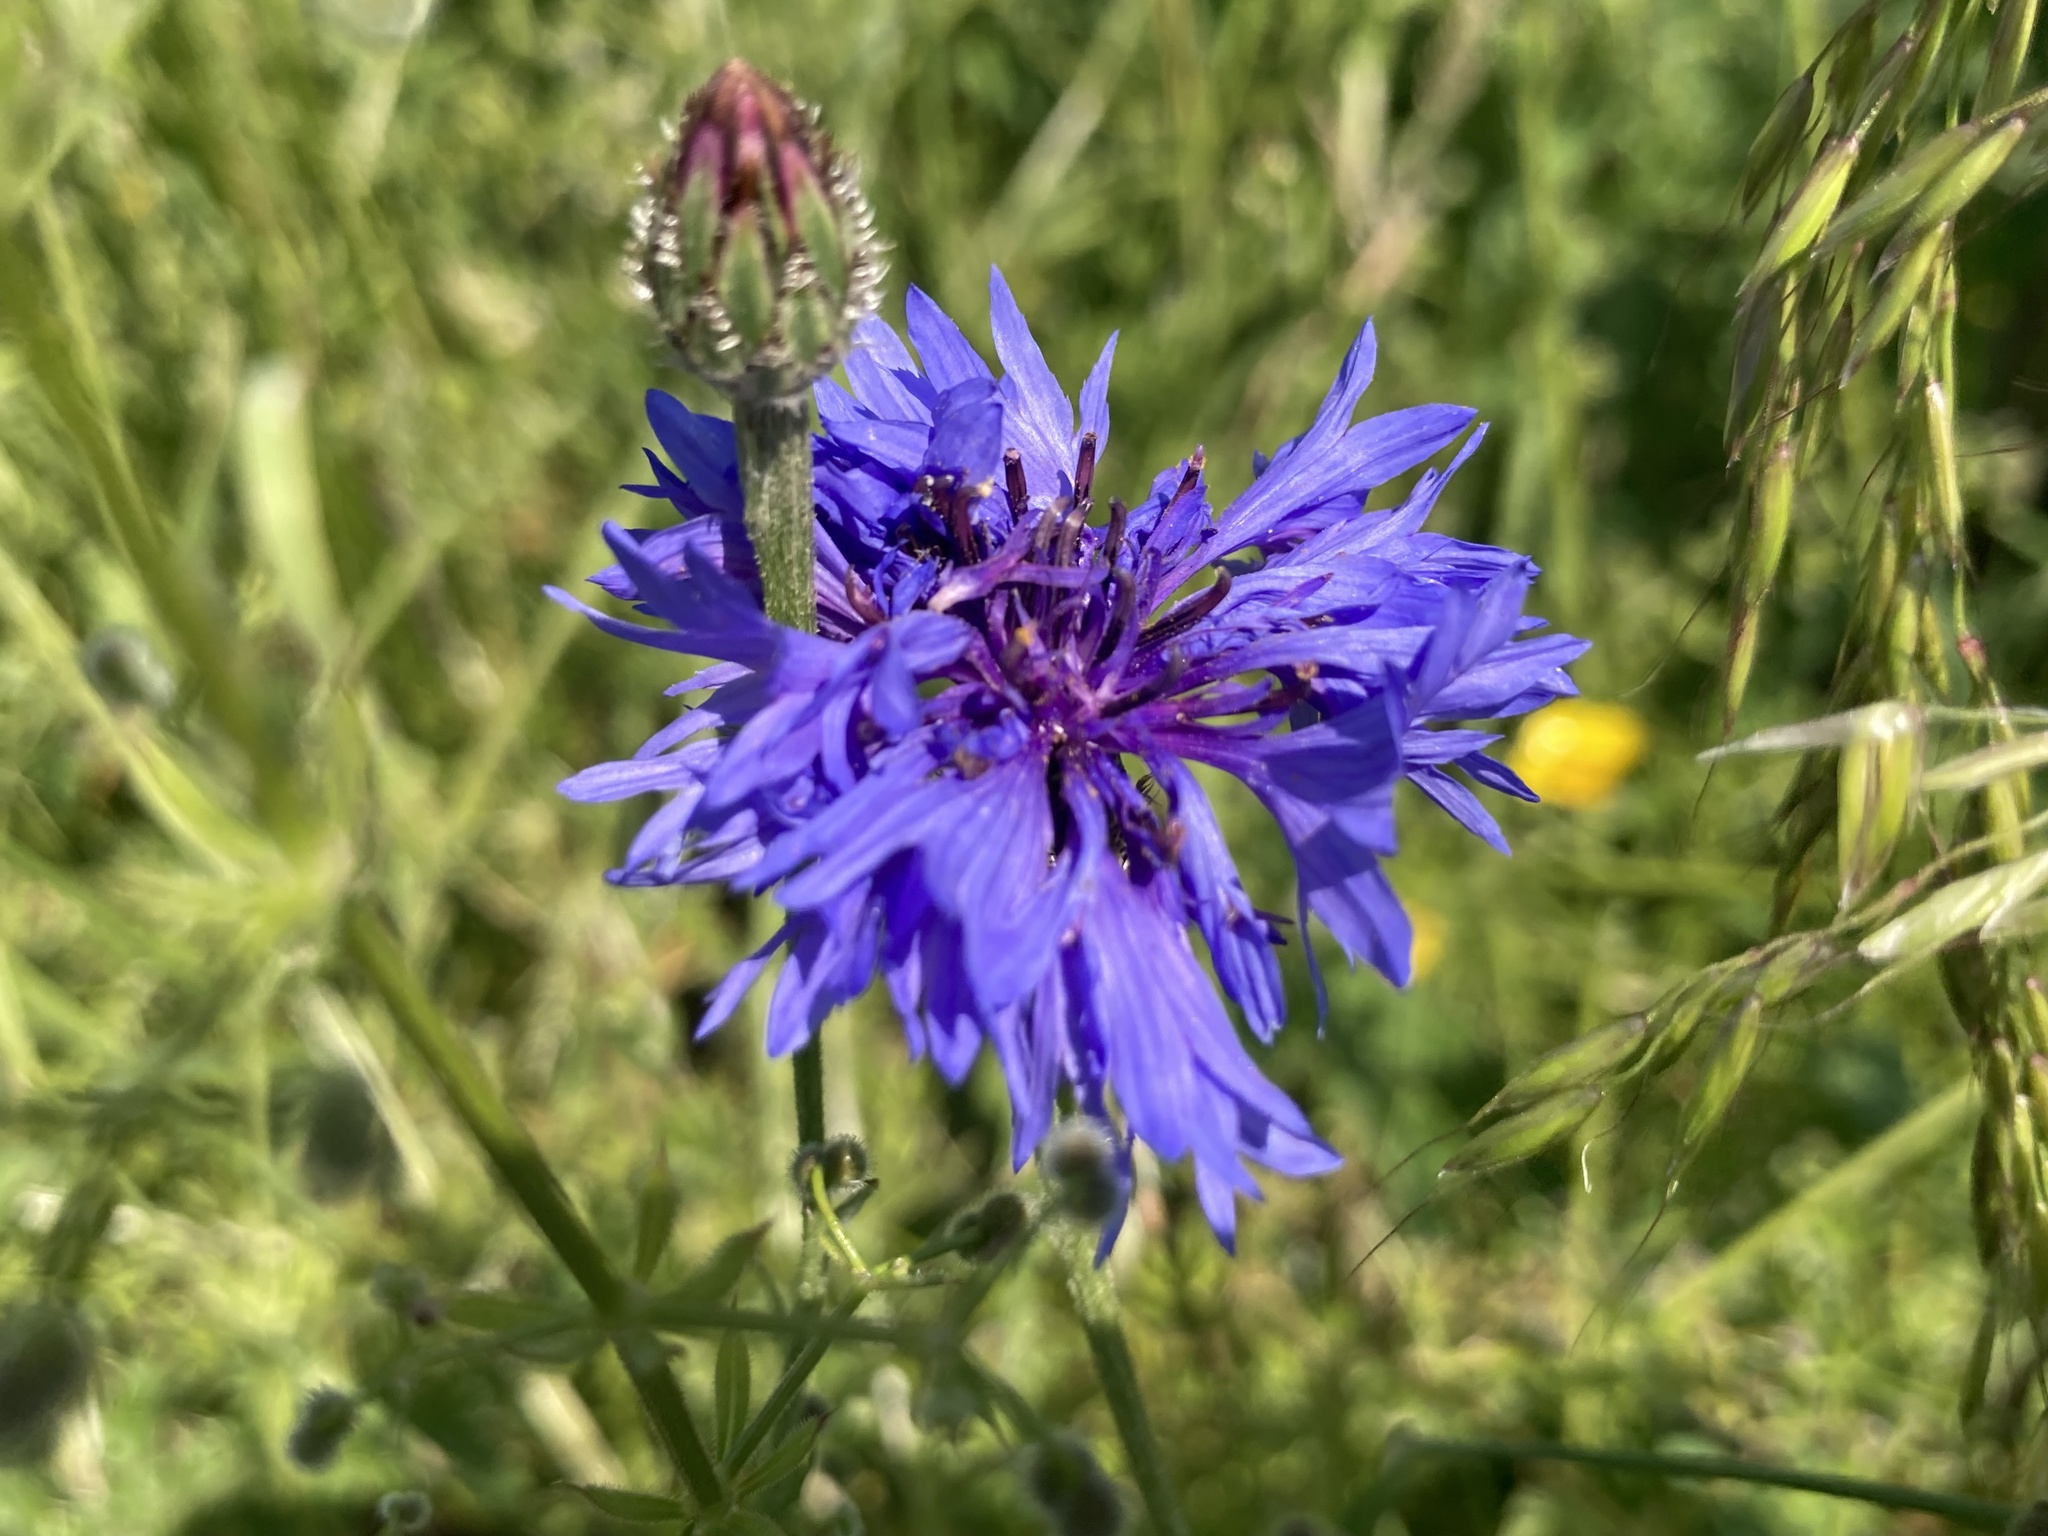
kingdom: Plantae
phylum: Tracheophyta
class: Magnoliopsida
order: Asterales
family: Asteraceae
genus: Centaurea
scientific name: Centaurea cyanus
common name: Cornflower
